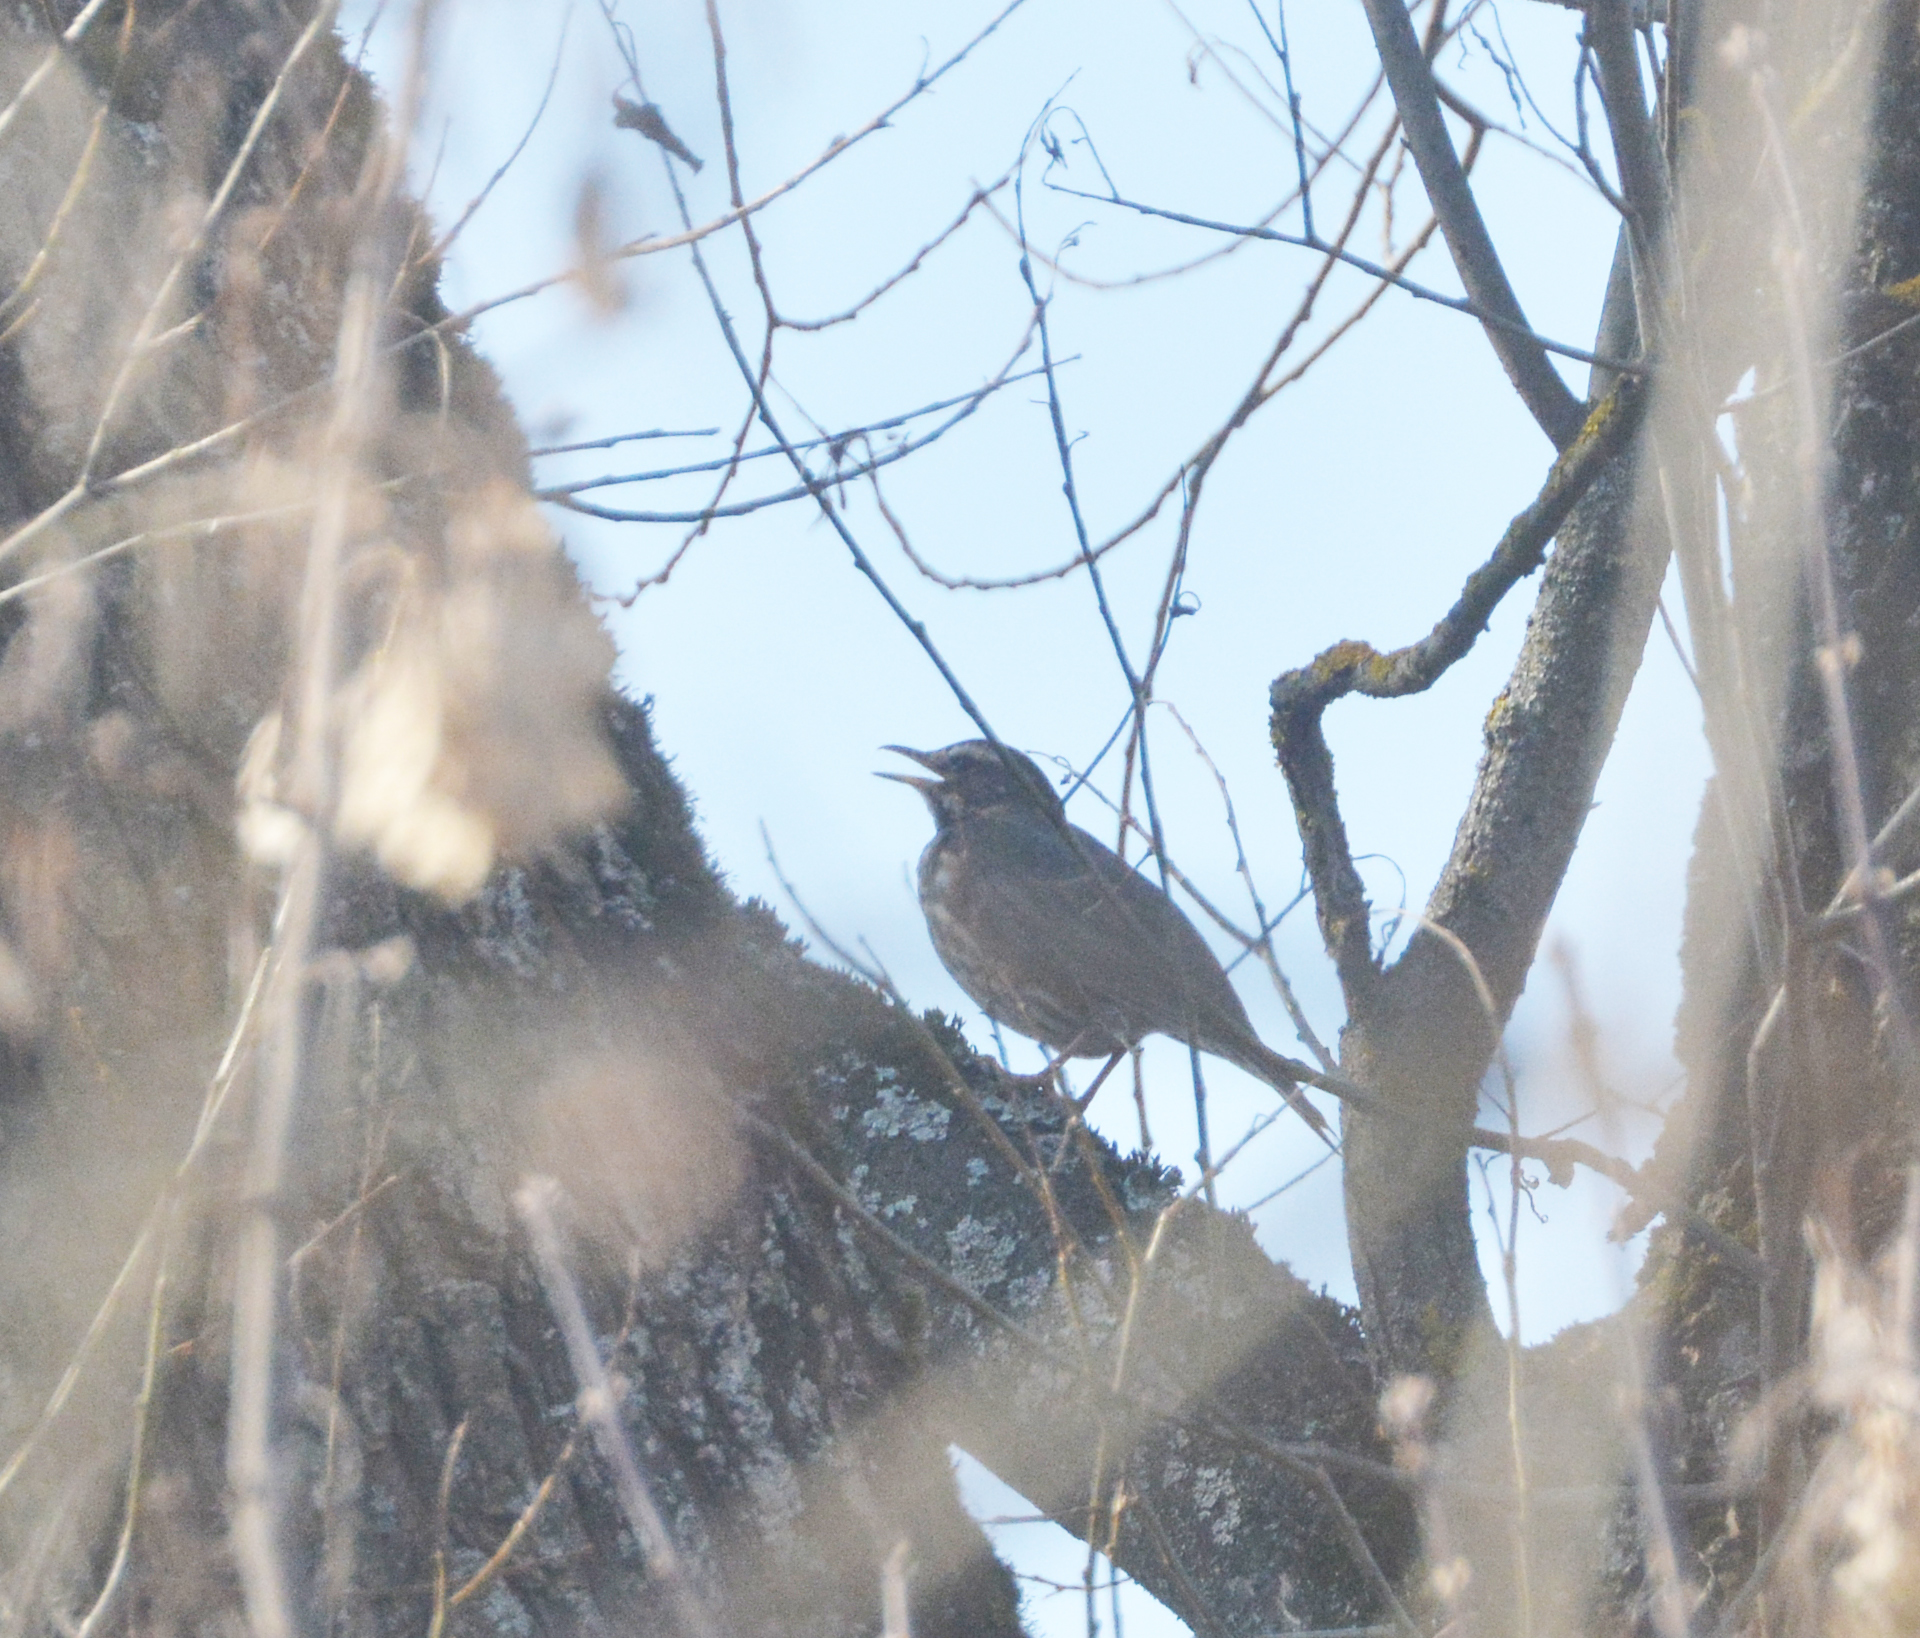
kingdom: Animalia
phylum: Chordata
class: Aves
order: Passeriformes
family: Turdidae
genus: Turdus
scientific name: Turdus iliacus
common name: Redwing
